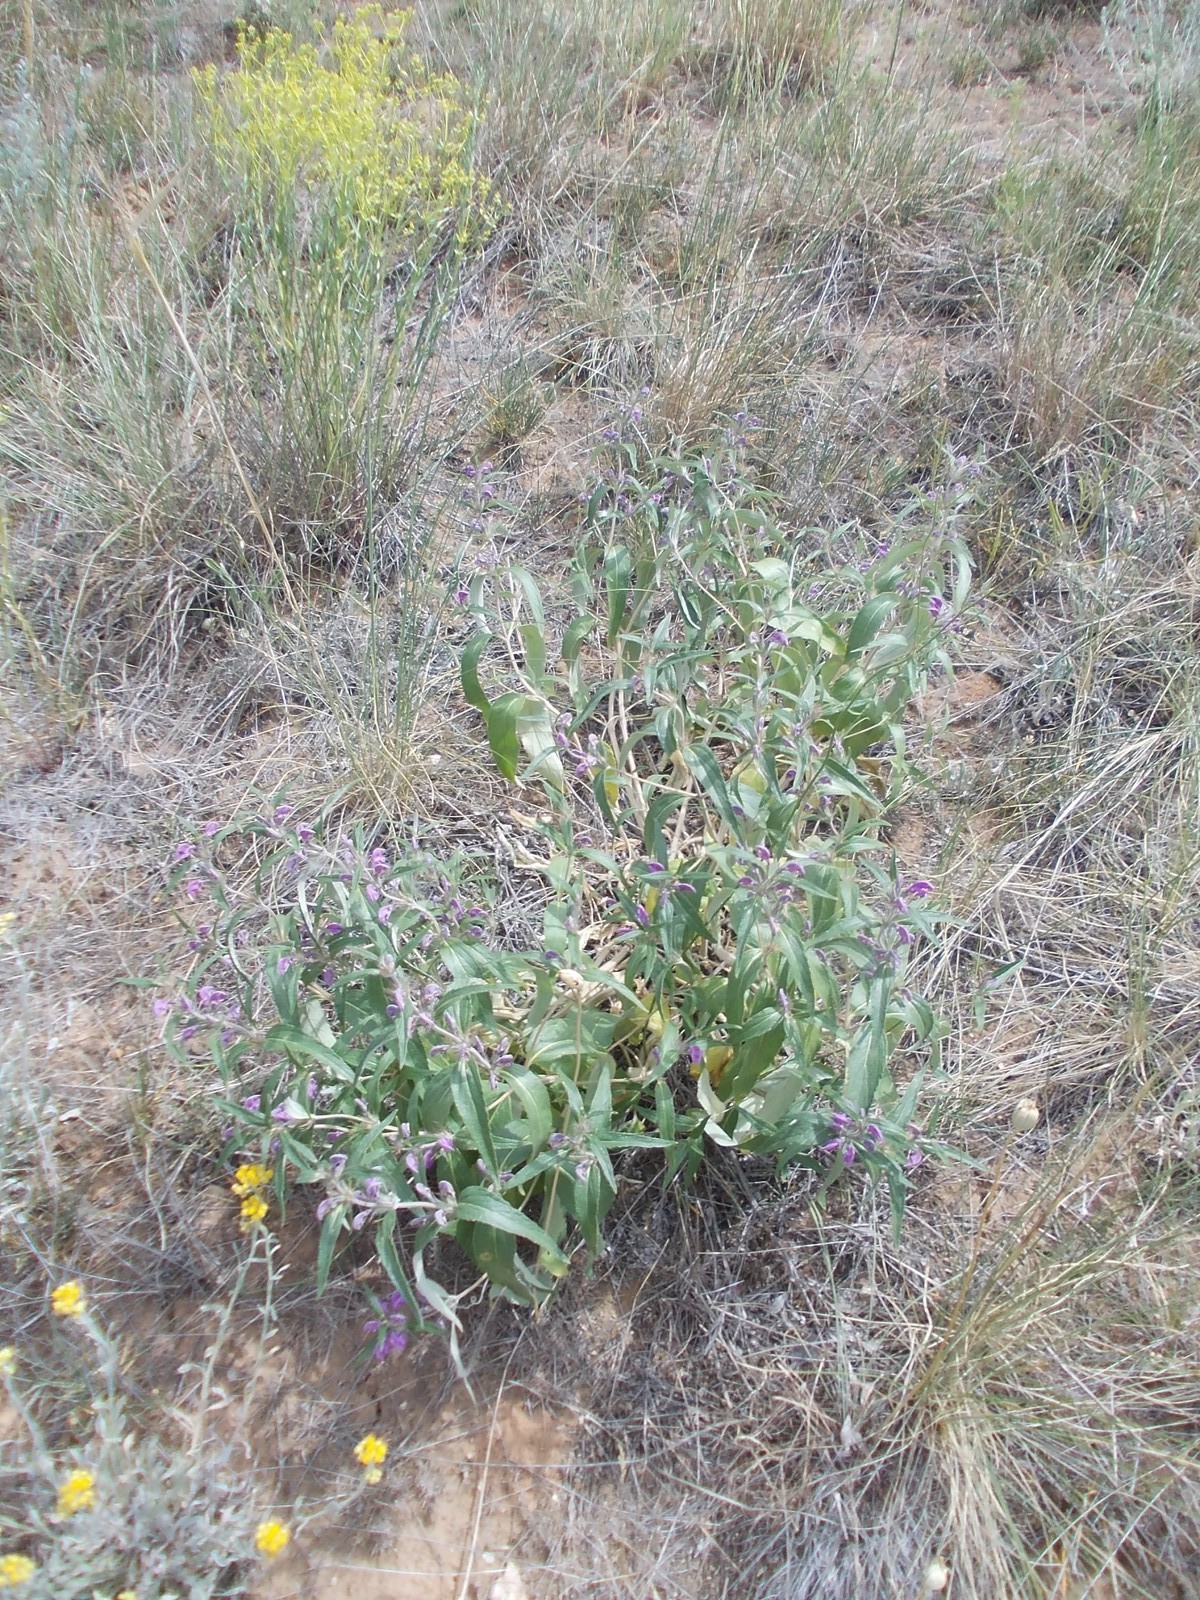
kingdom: Plantae
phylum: Tracheophyta
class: Magnoliopsida
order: Lamiales
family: Lamiaceae
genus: Phlomis
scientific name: Phlomis herba-venti
